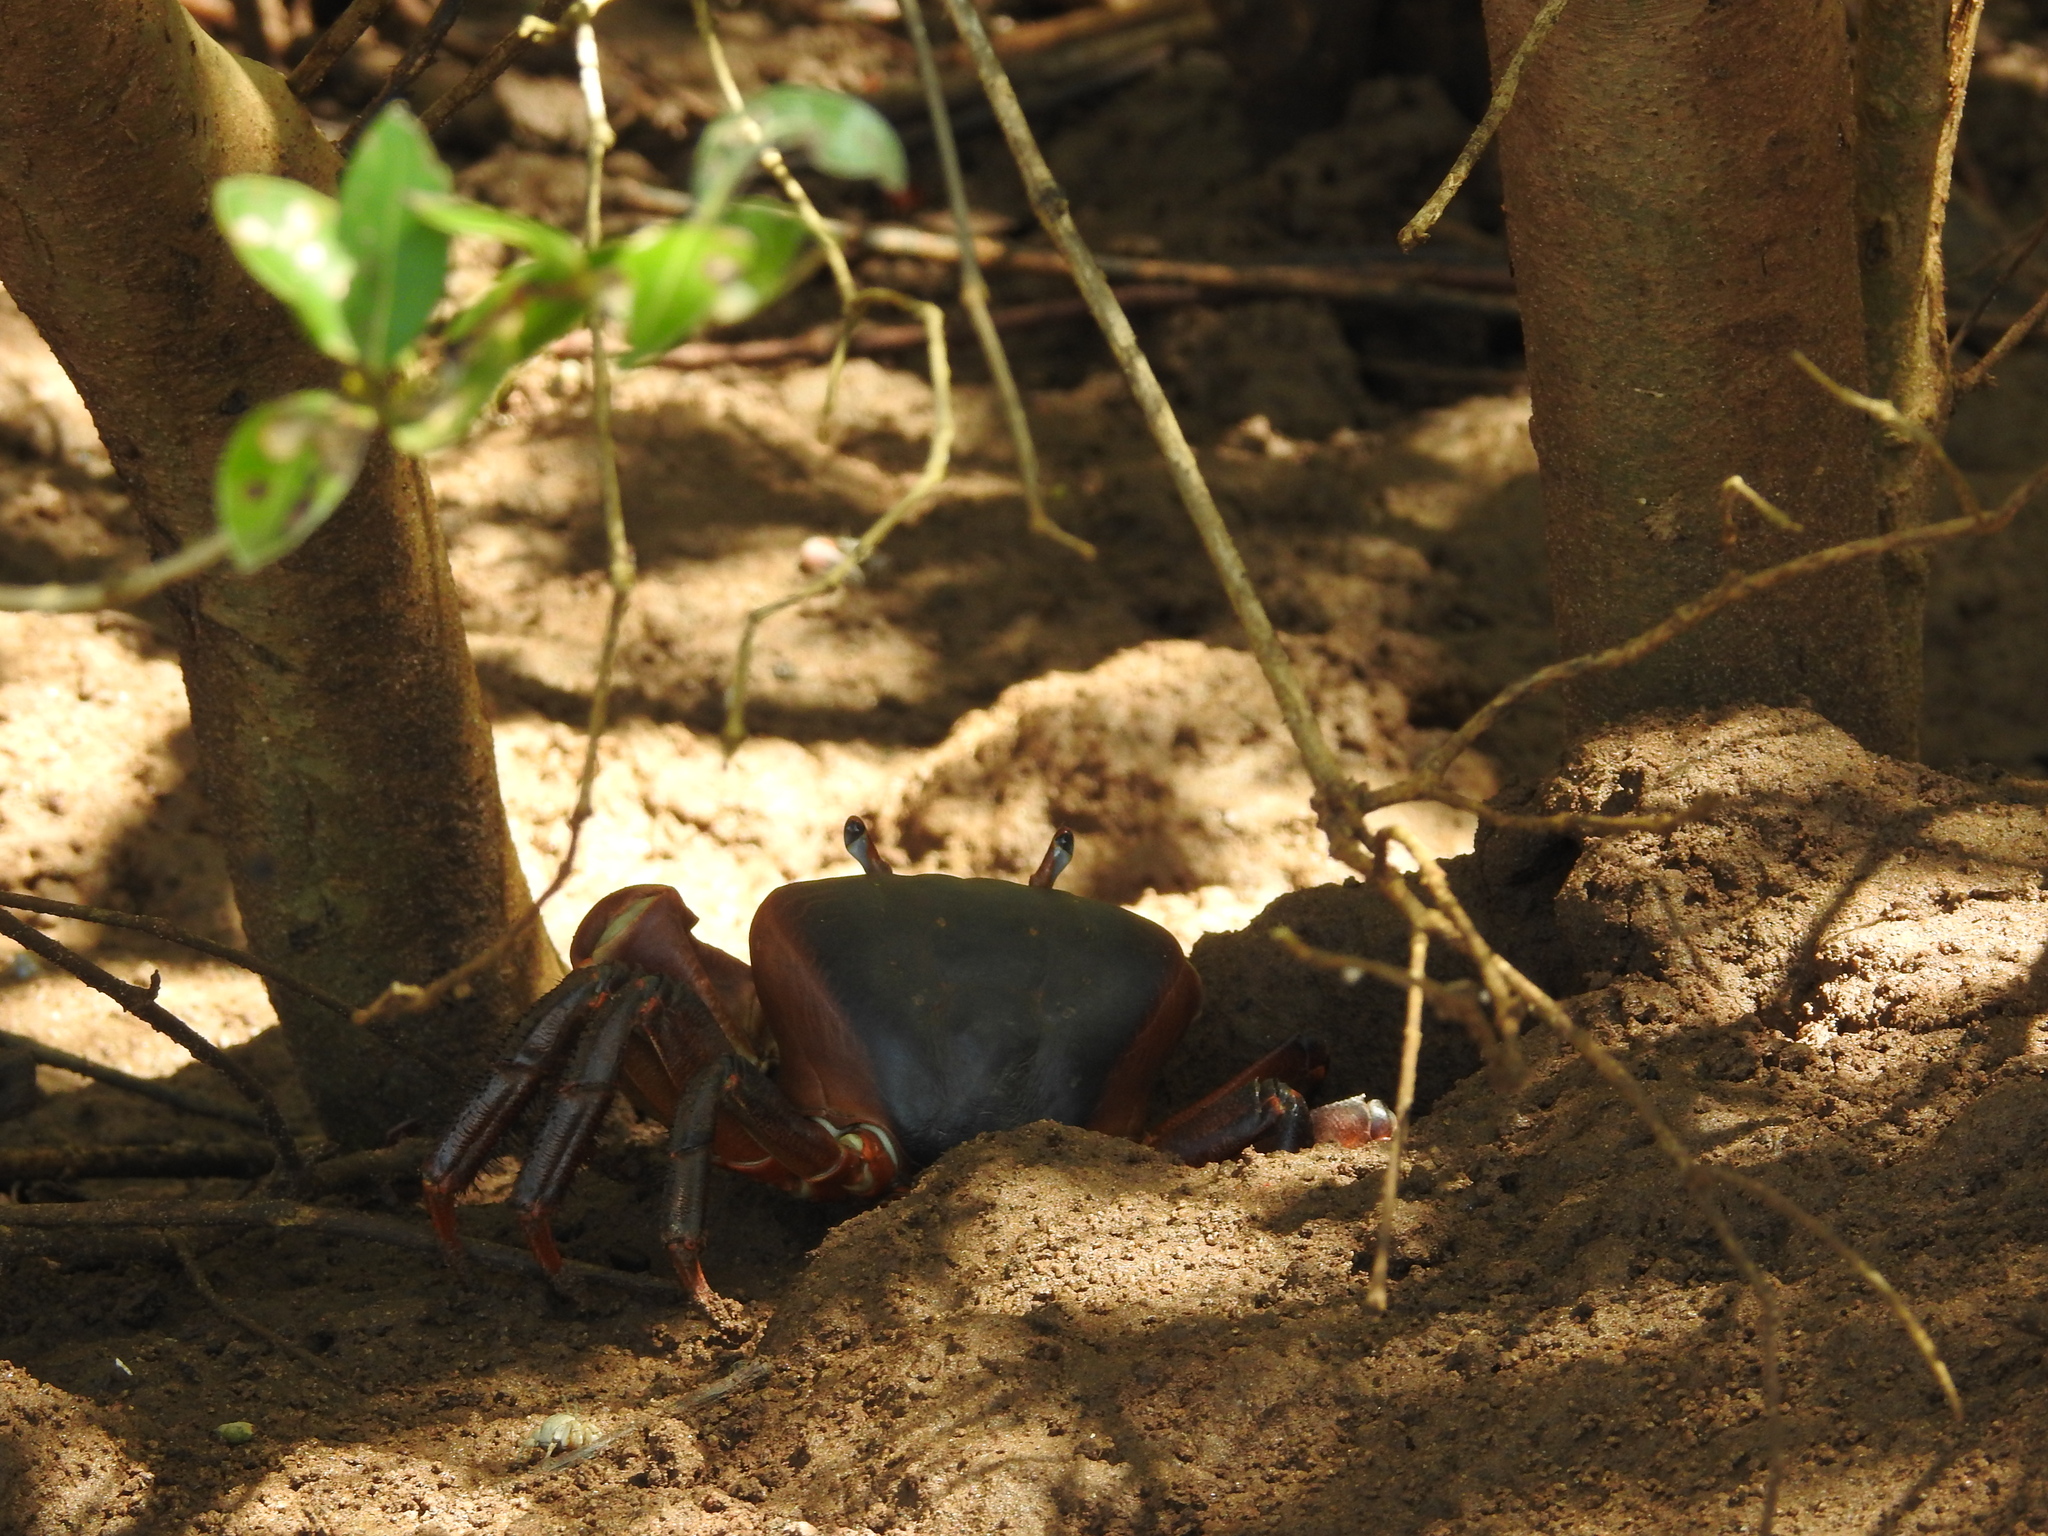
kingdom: Animalia
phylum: Arthropoda
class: Malacostraca
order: Decapoda
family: Gecarcinidae
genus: Cardisoma
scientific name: Cardisoma carnifex
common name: Brown land crab
